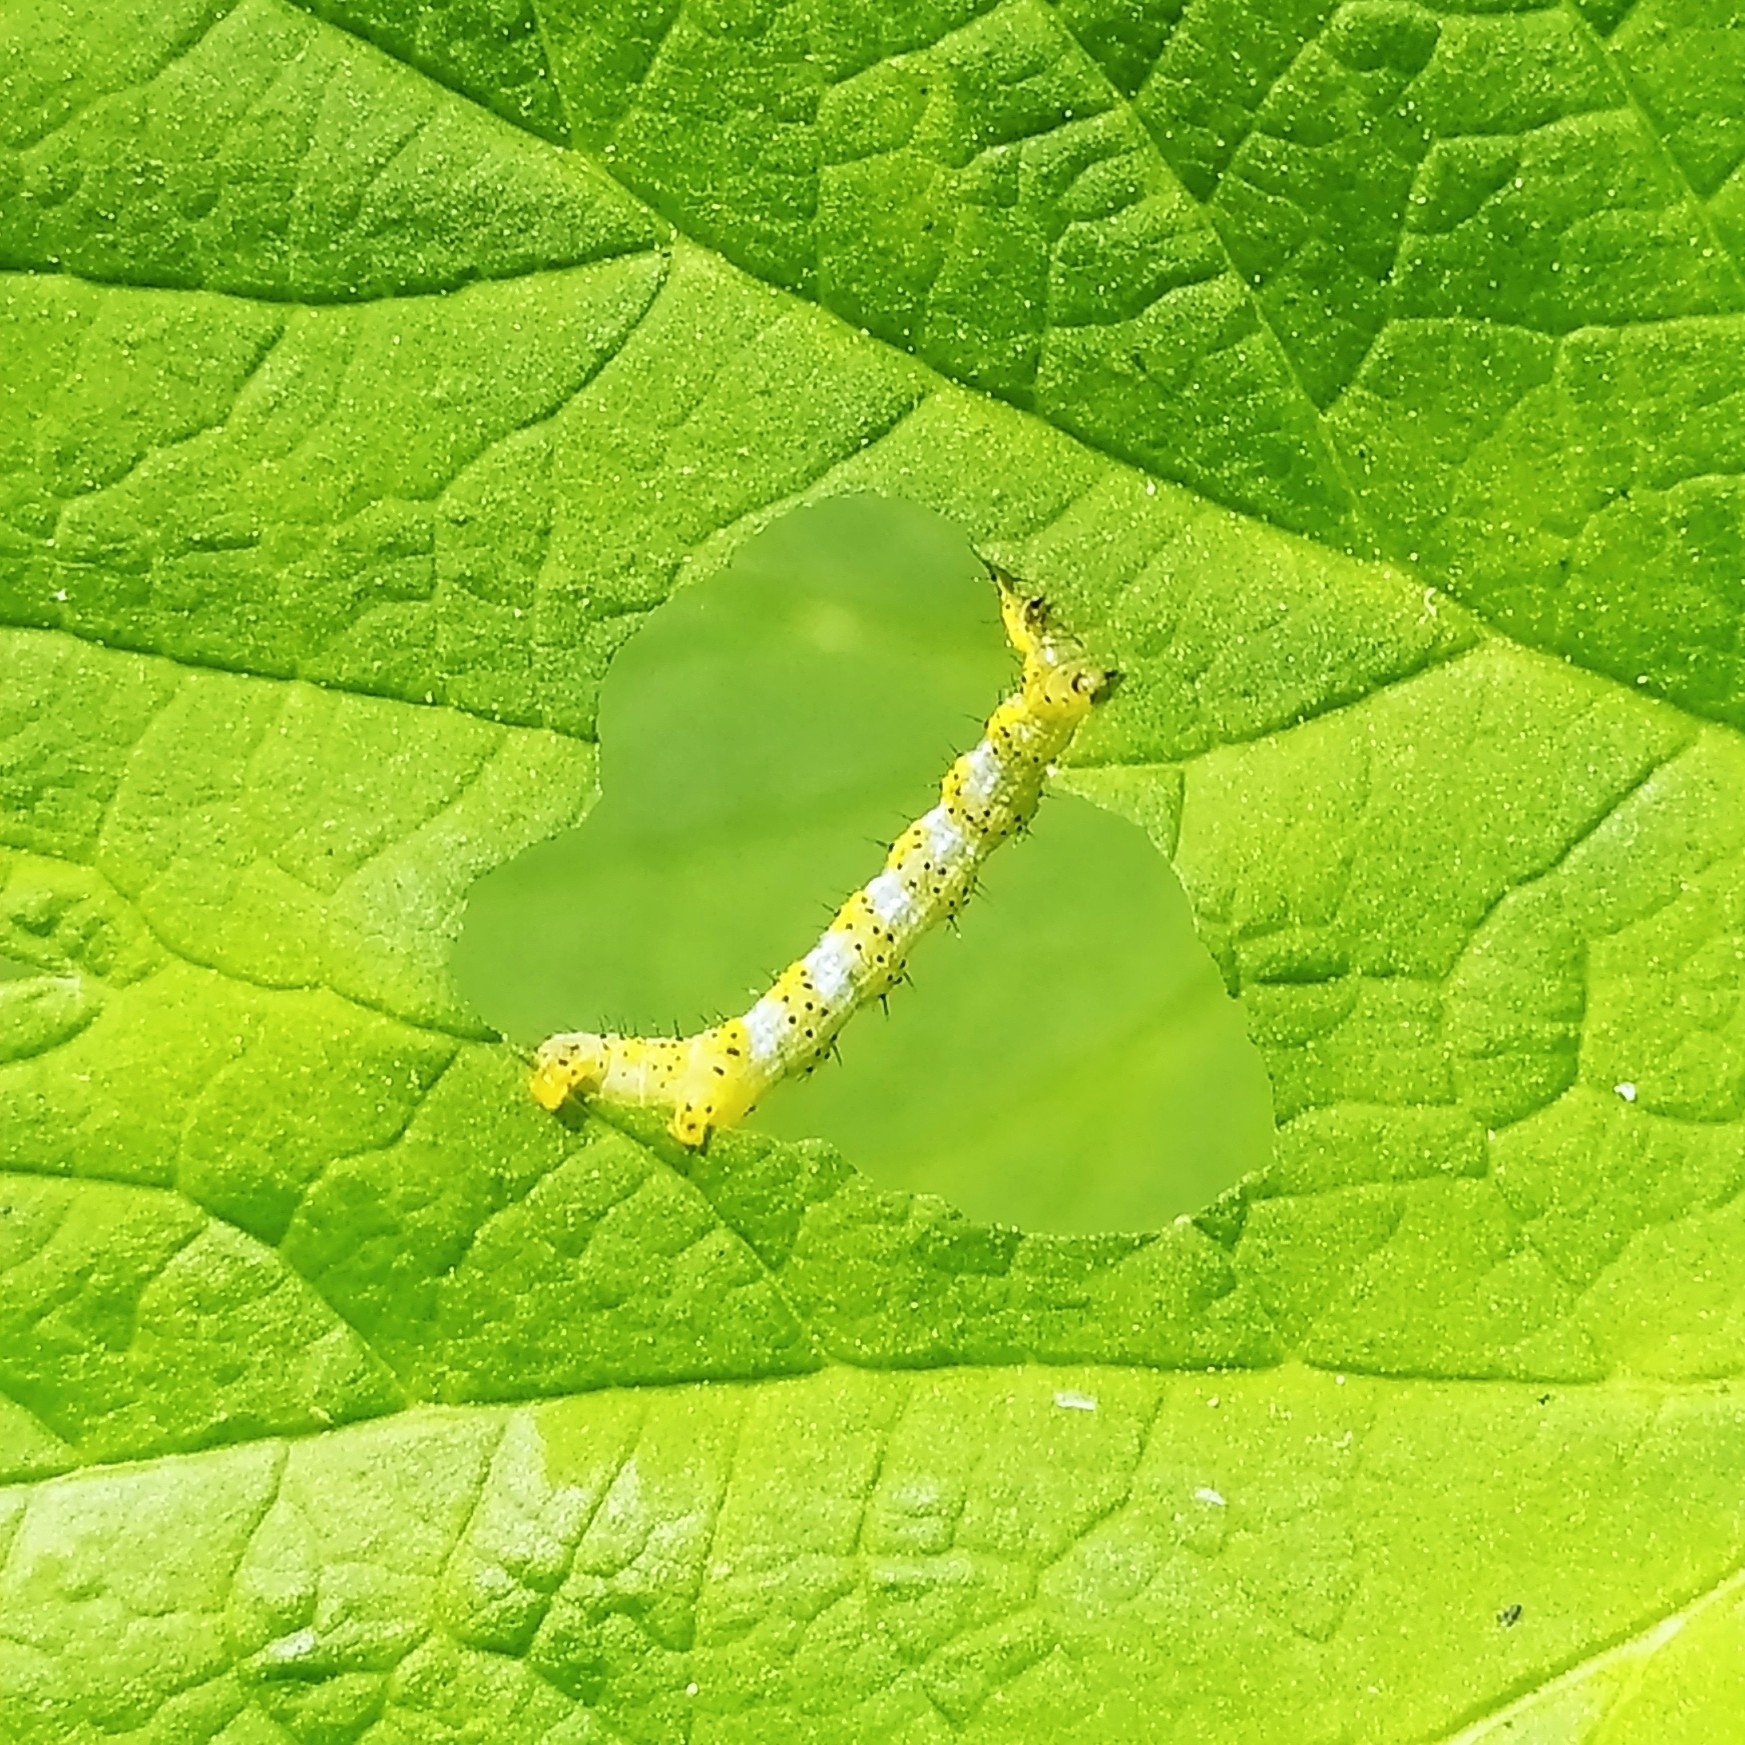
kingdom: Animalia
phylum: Arthropoda
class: Insecta
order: Lepidoptera
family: Geometridae
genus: Macaria
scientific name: Macaria wauaria
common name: V-moth
